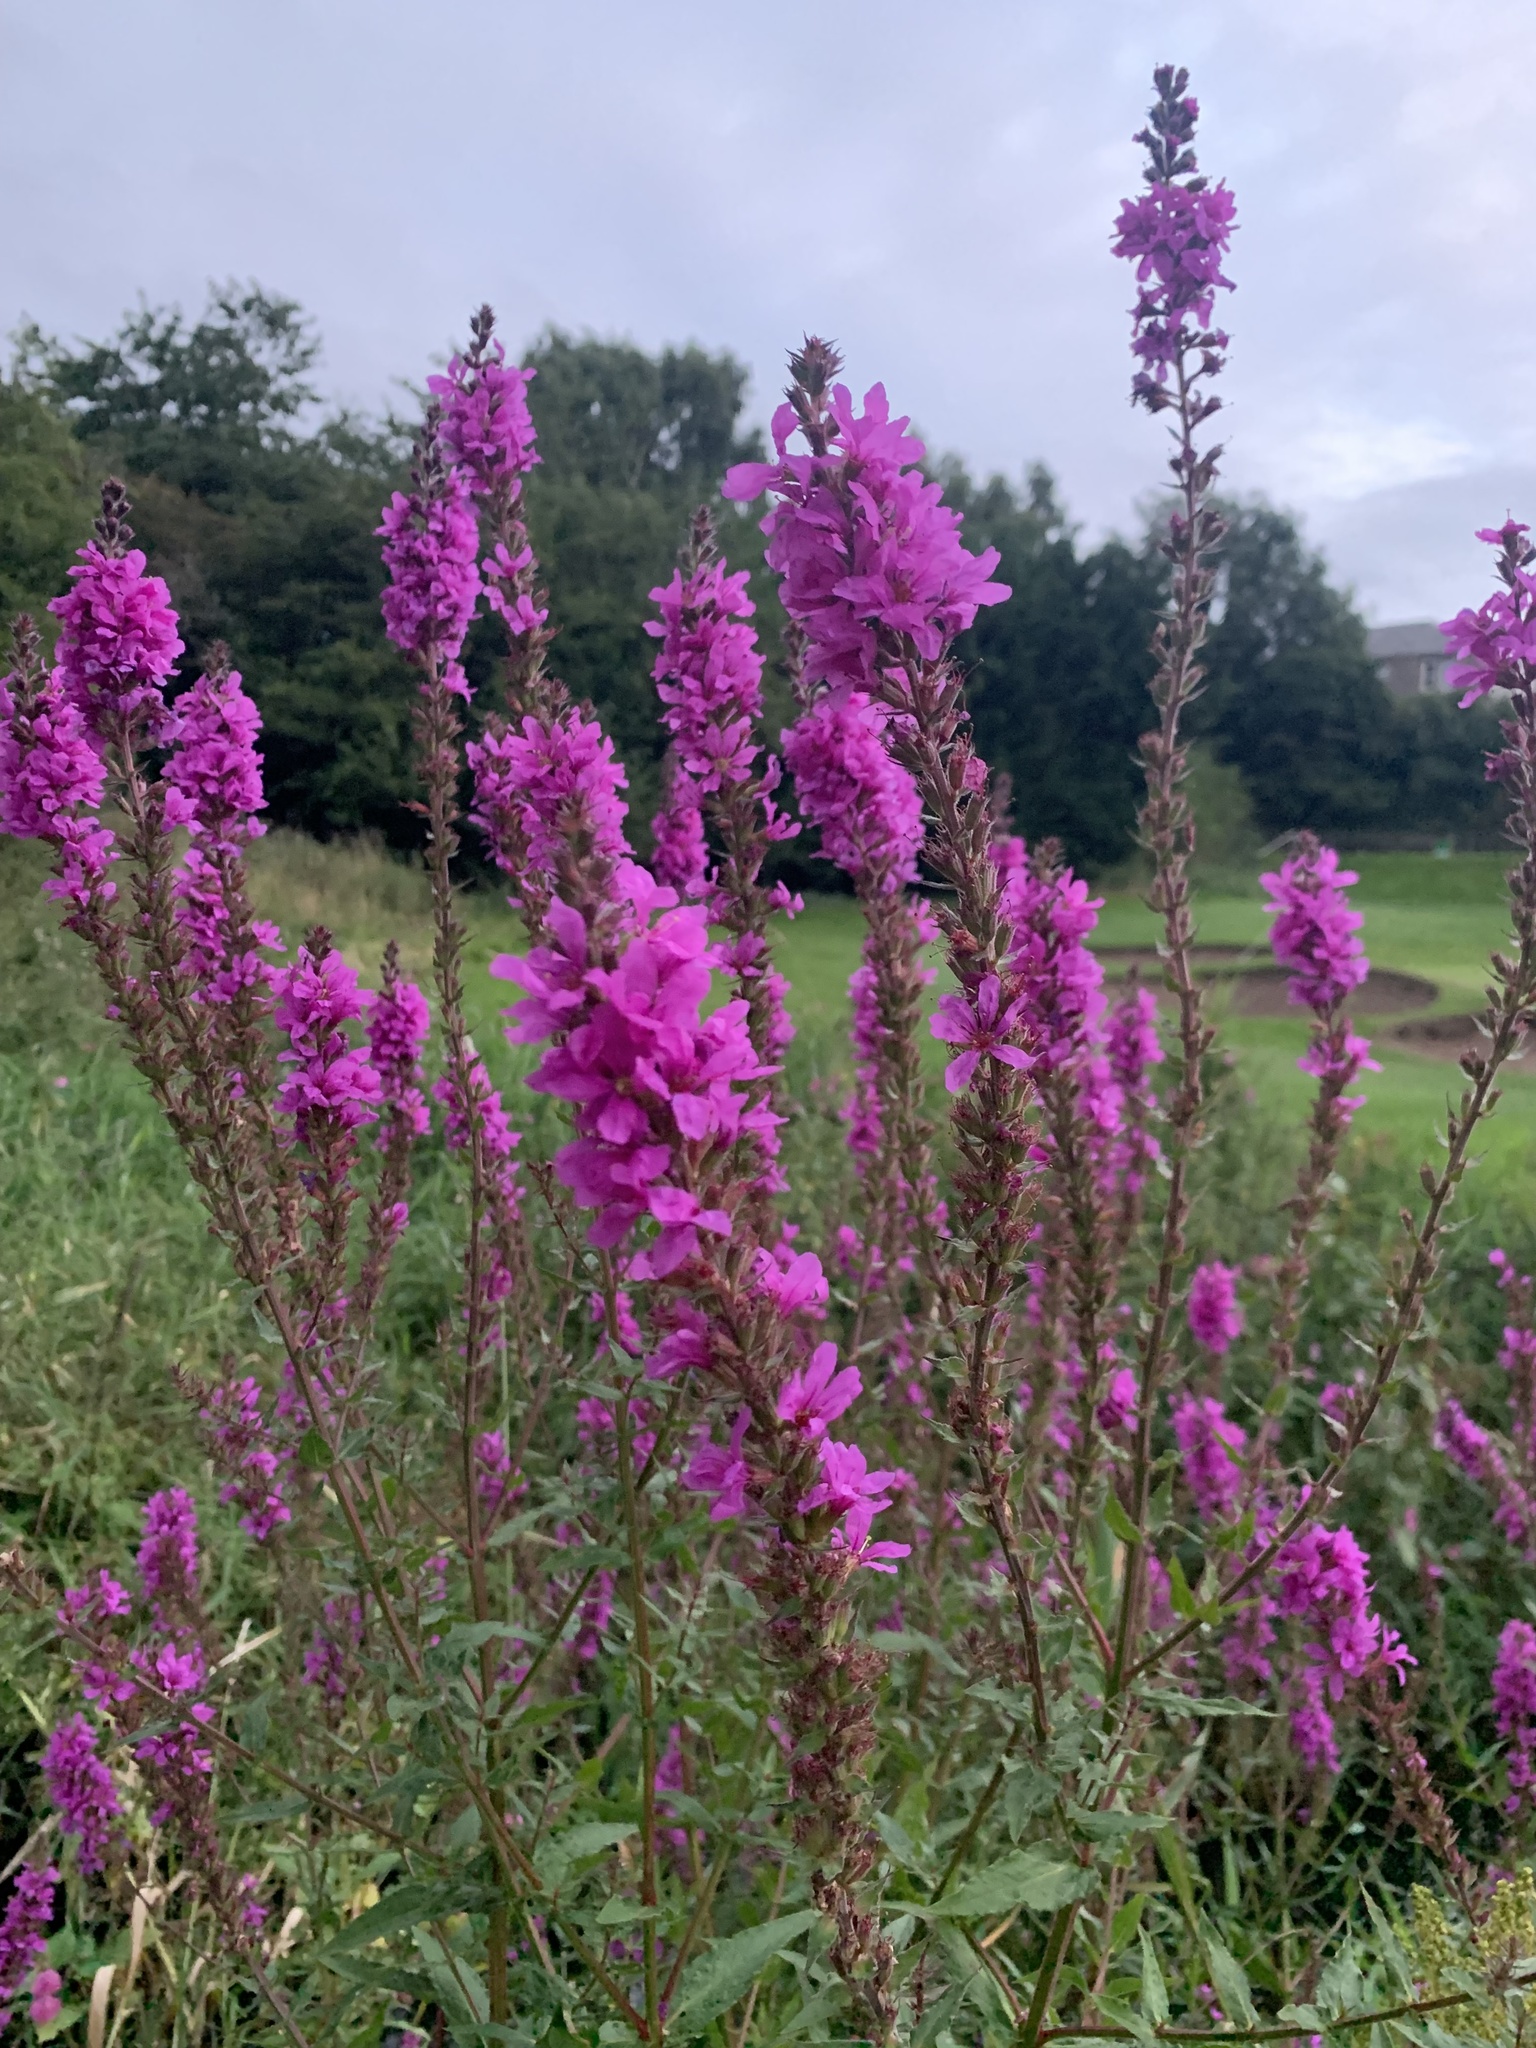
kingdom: Plantae
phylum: Tracheophyta
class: Magnoliopsida
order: Myrtales
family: Lythraceae
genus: Lythrum
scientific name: Lythrum salicaria
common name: Purple loosestrife
